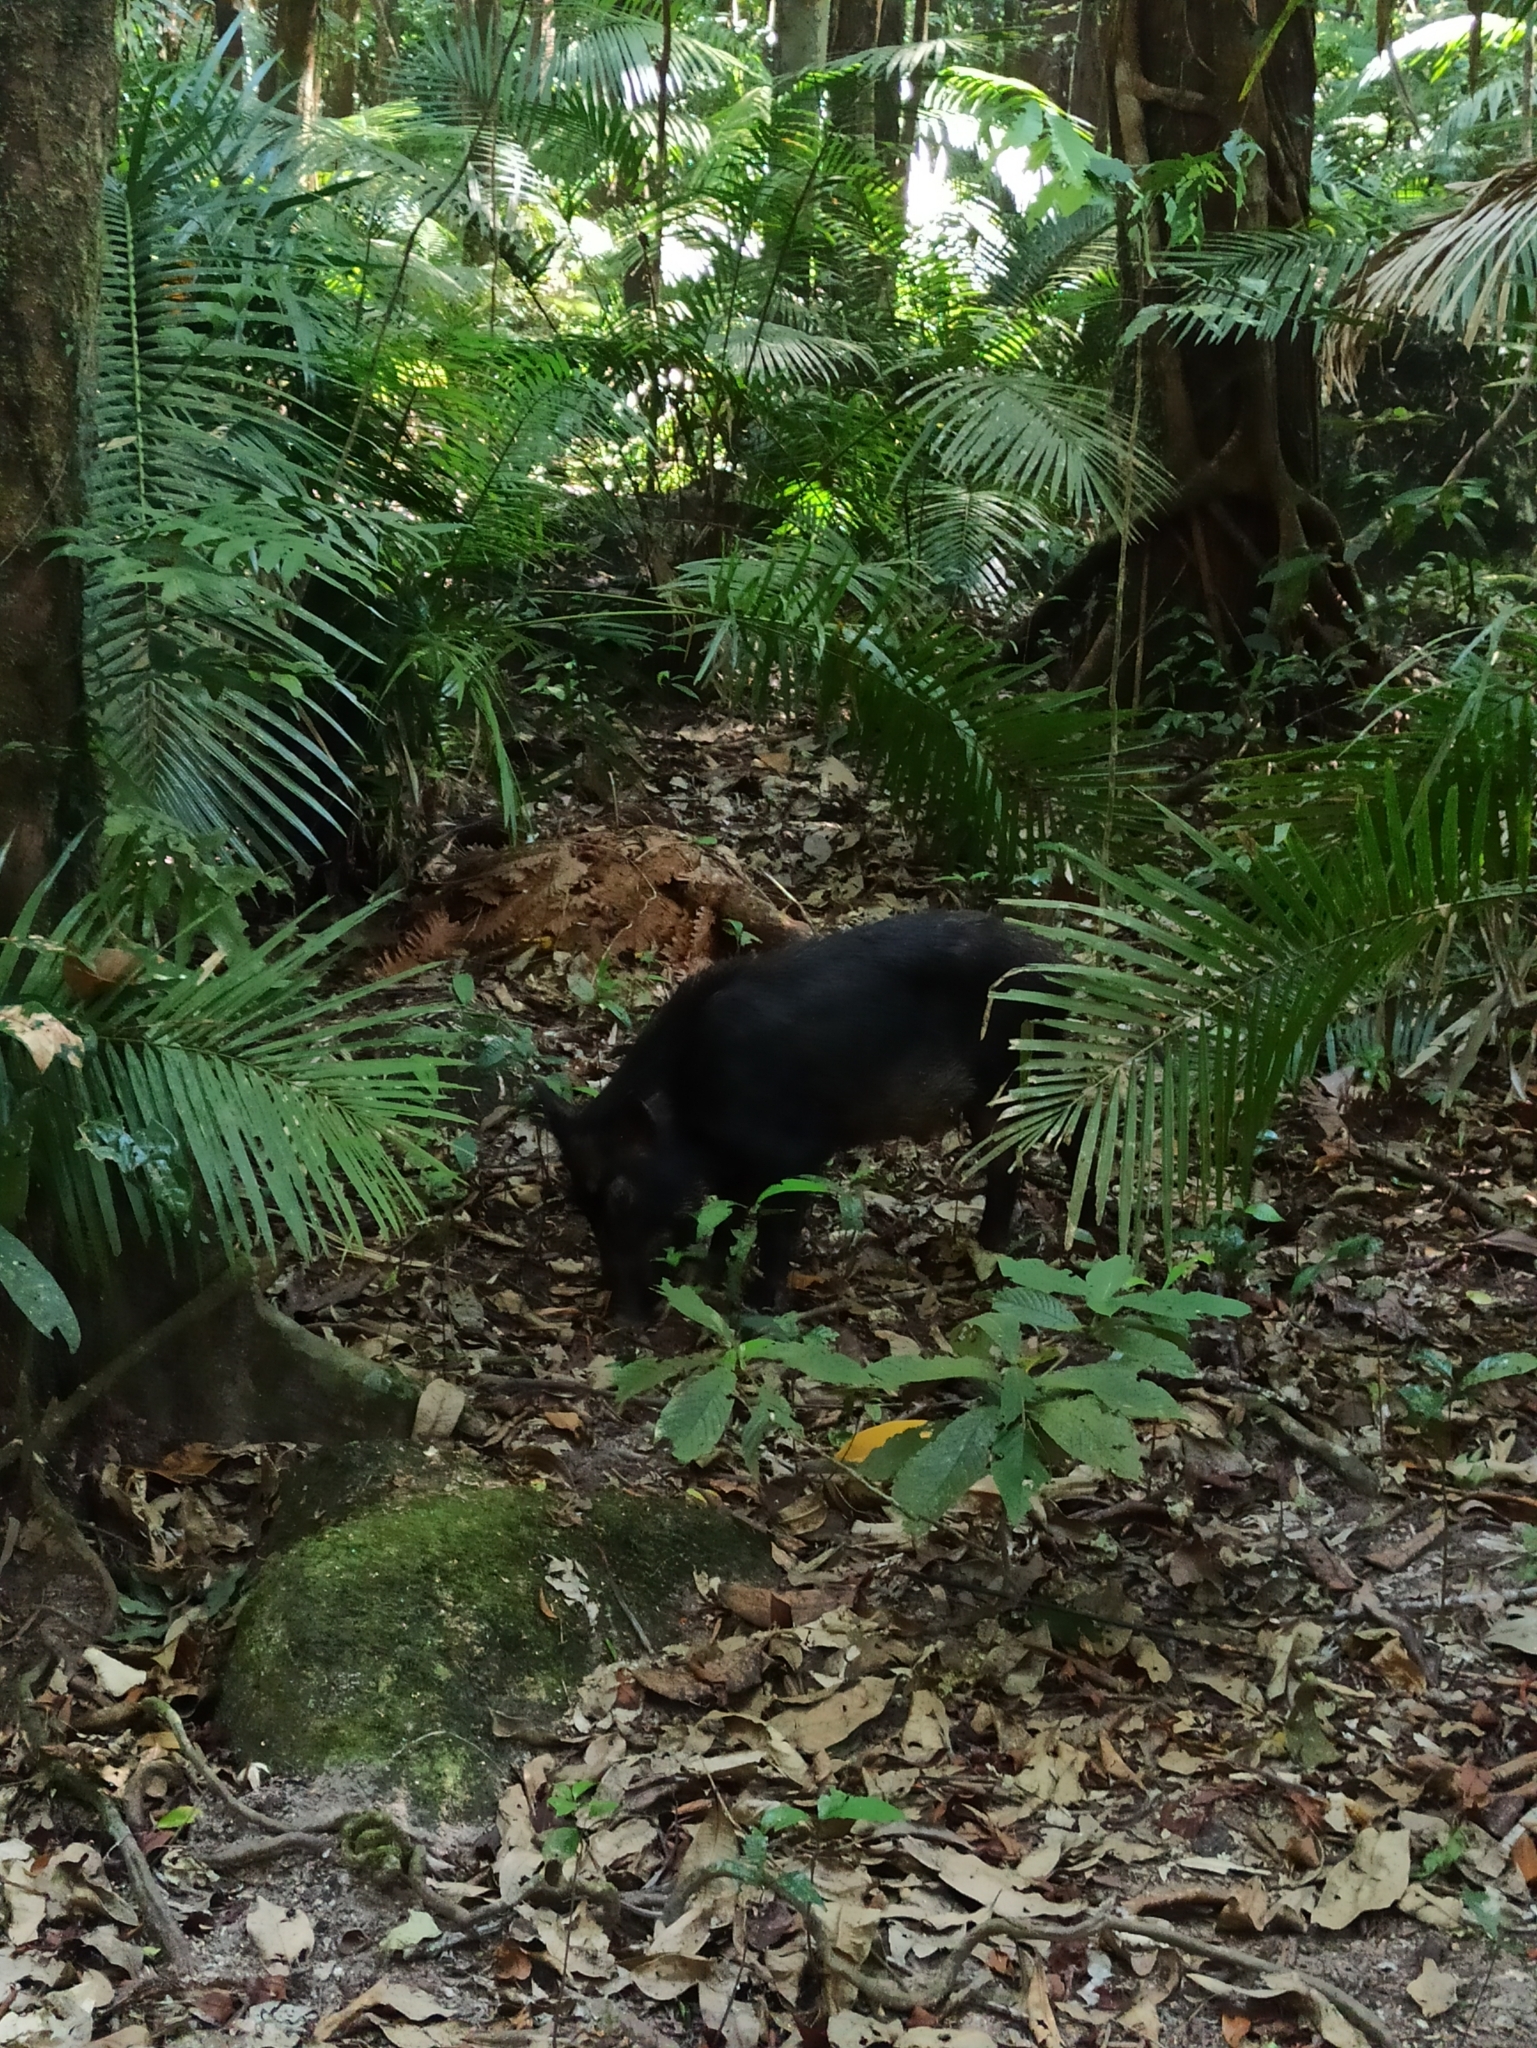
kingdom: Animalia
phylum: Chordata
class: Mammalia
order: Artiodactyla
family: Suidae
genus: Sus
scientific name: Sus scrofa
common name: Wild boar
